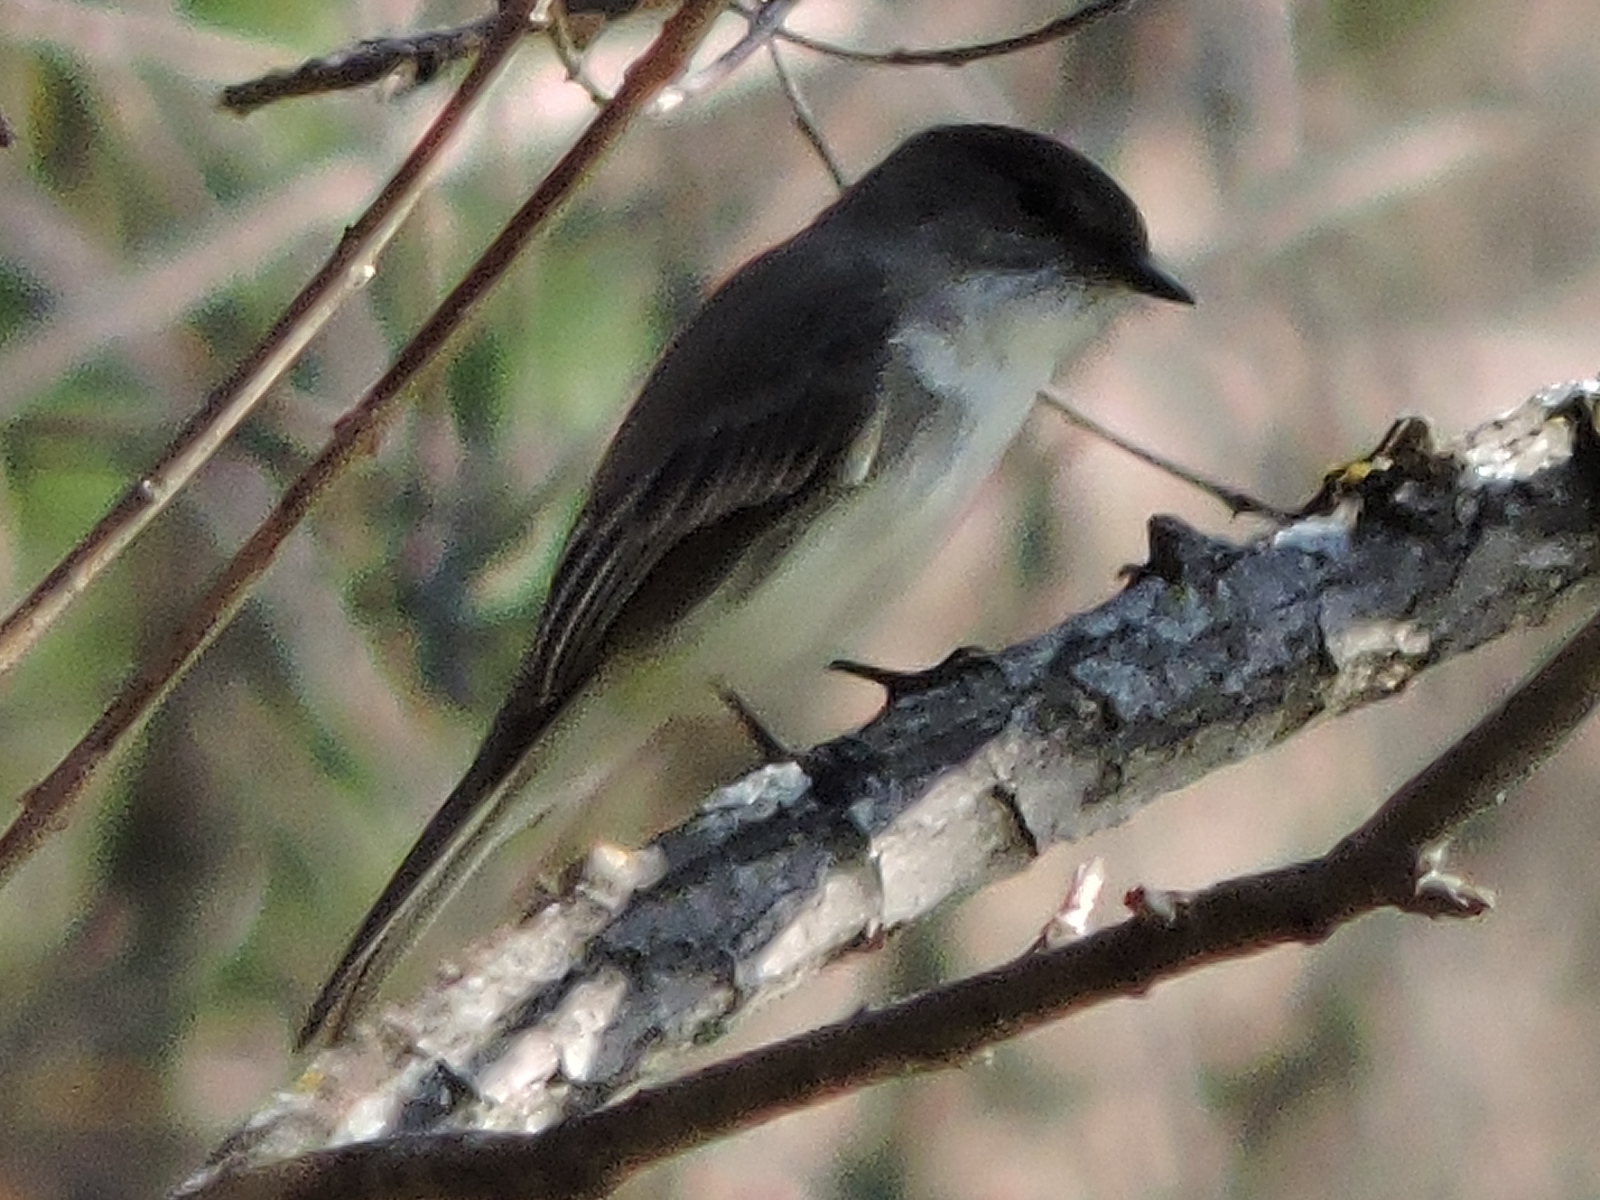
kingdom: Animalia
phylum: Chordata
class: Aves
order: Passeriformes
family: Tyrannidae
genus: Sayornis
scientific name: Sayornis phoebe
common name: Eastern phoebe
